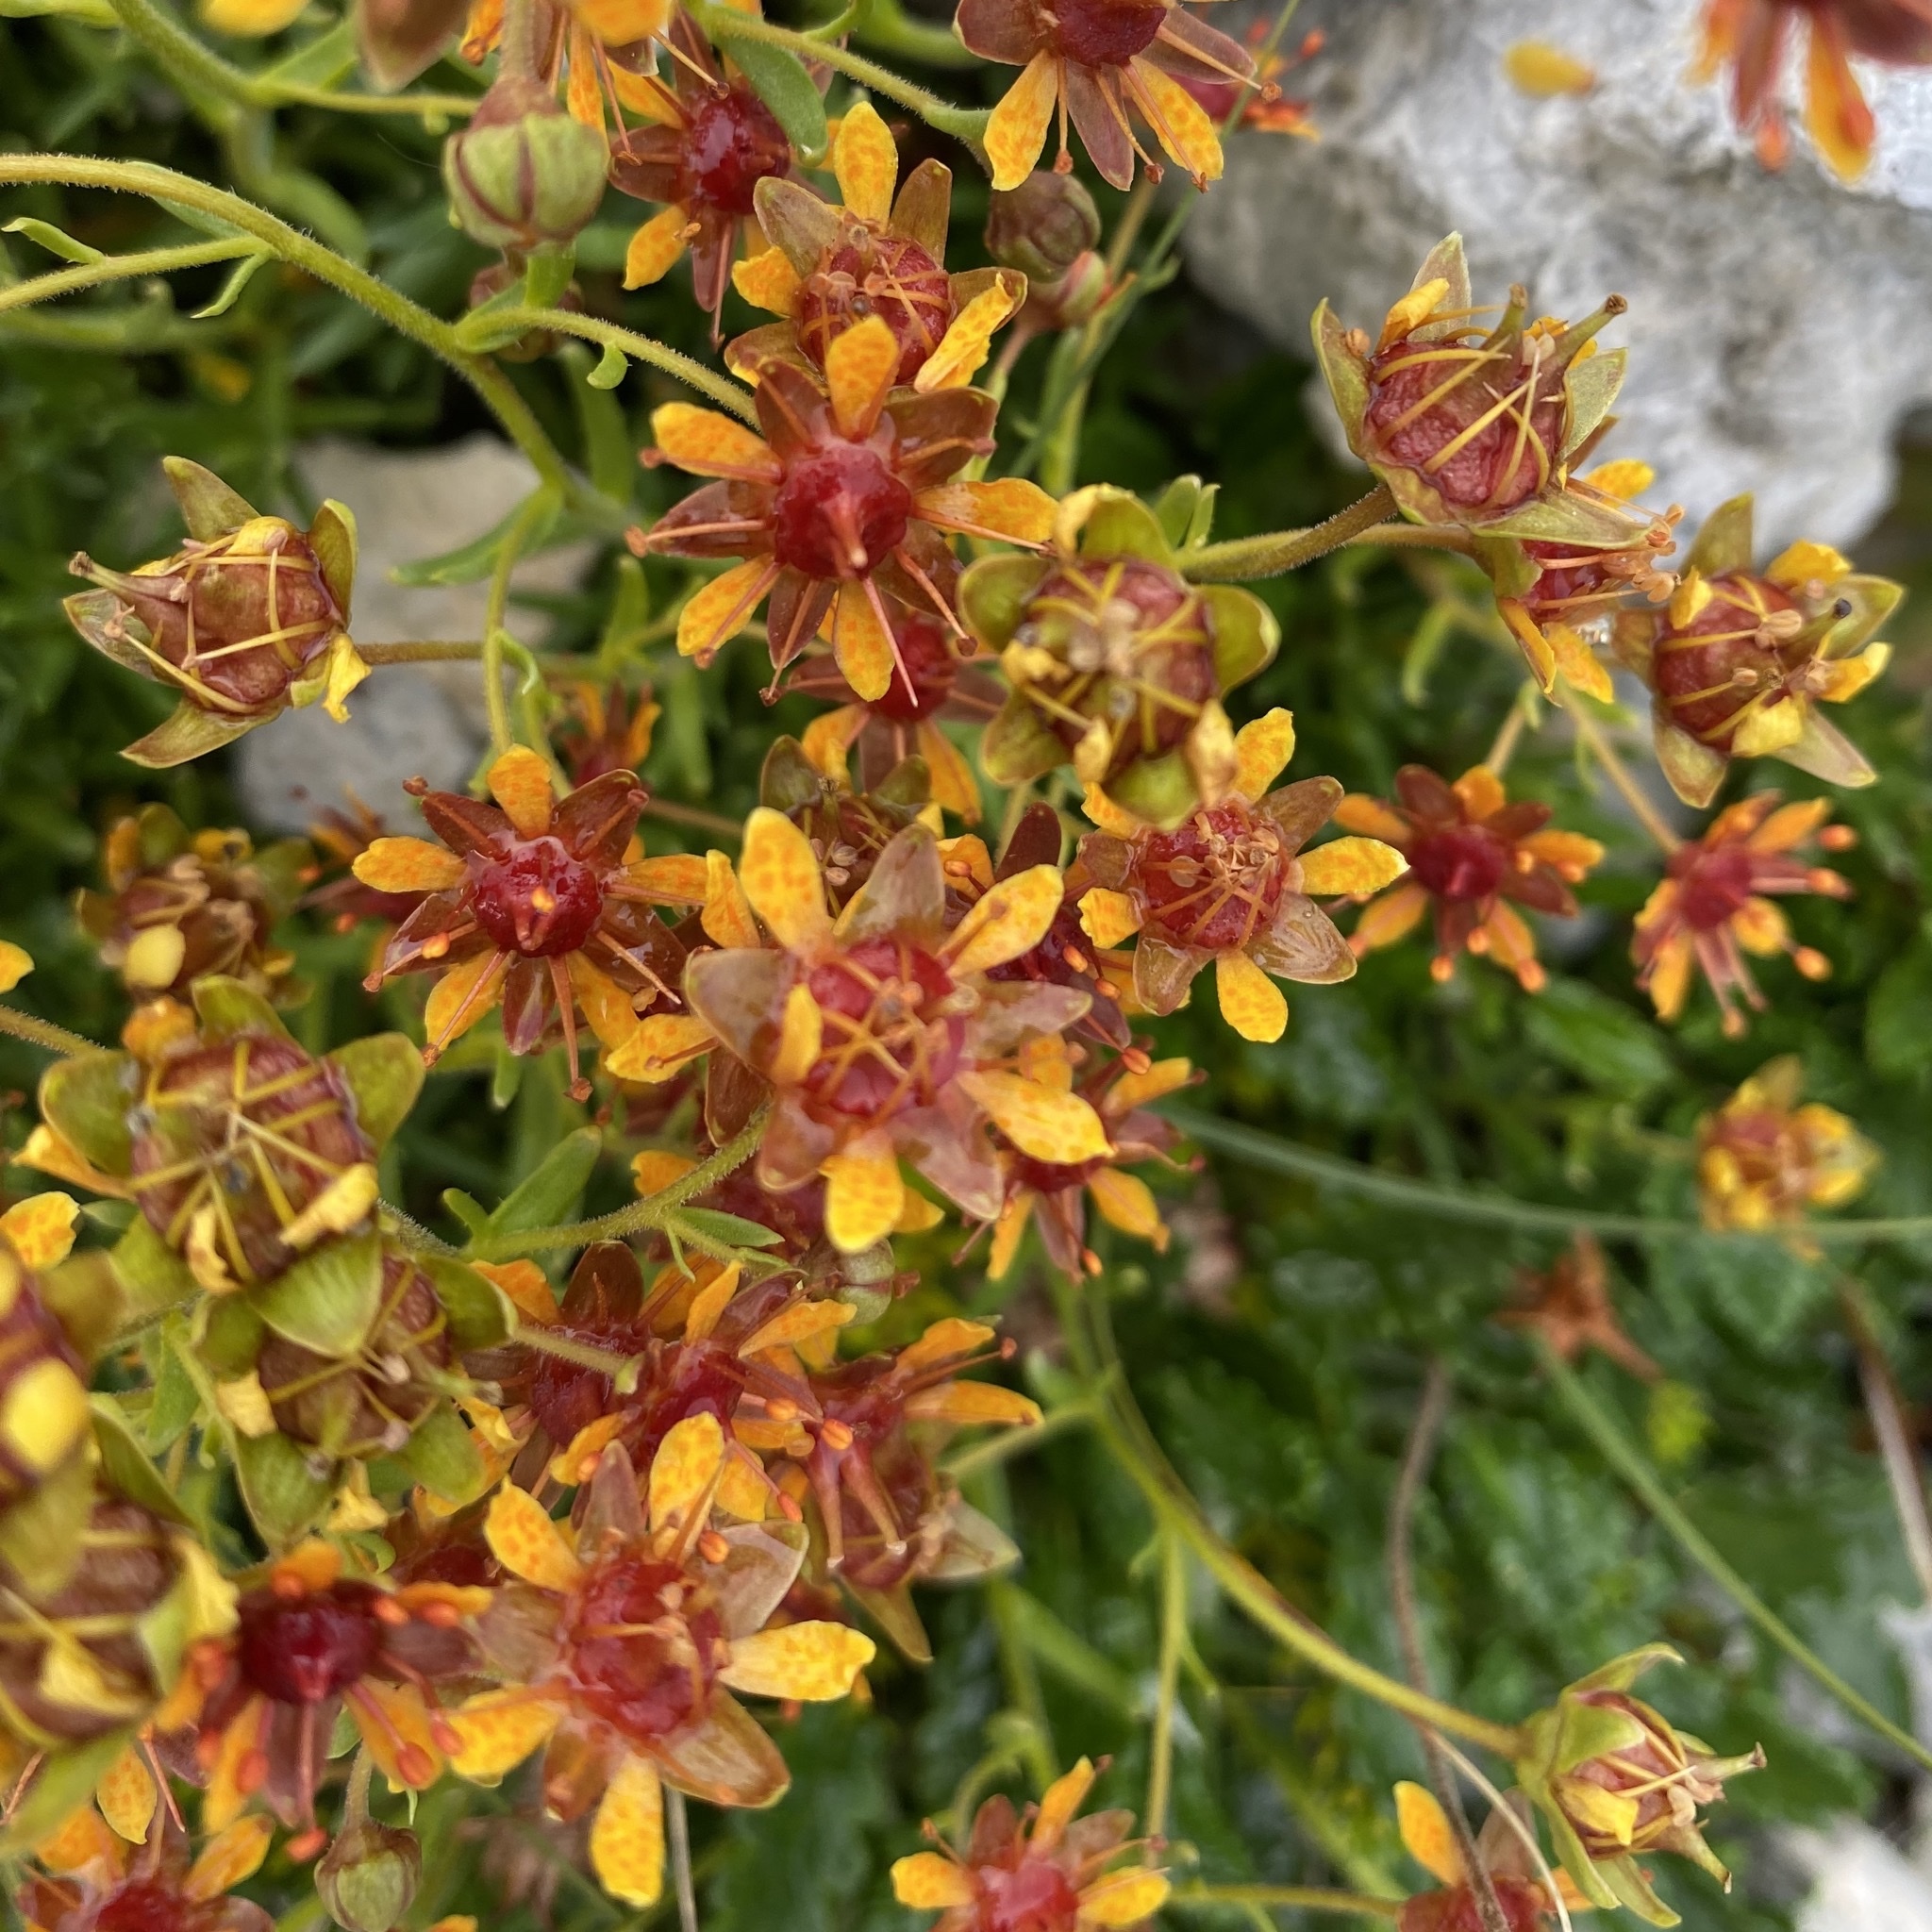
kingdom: Plantae
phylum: Tracheophyta
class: Magnoliopsida
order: Saxifragales
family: Saxifragaceae
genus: Saxifraga
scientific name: Saxifraga aizoides
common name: Yellow mountain saxifrage
